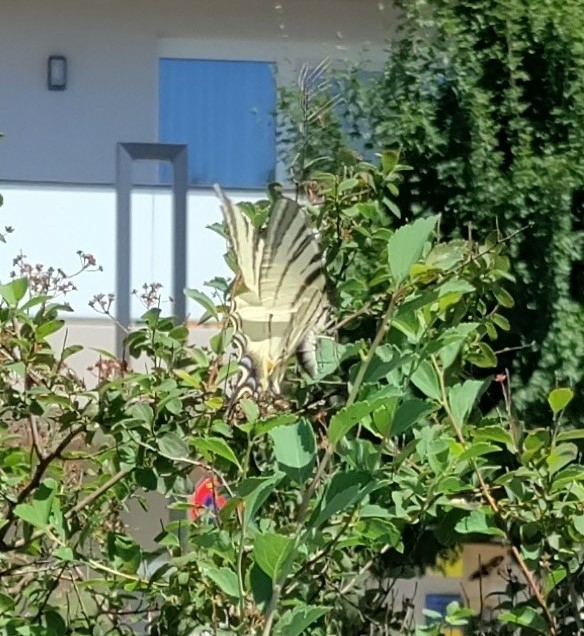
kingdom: Animalia
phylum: Arthropoda
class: Insecta
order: Lepidoptera
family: Papilionidae
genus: Iphiclides
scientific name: Iphiclides podalirius
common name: Scarce swallowtail
